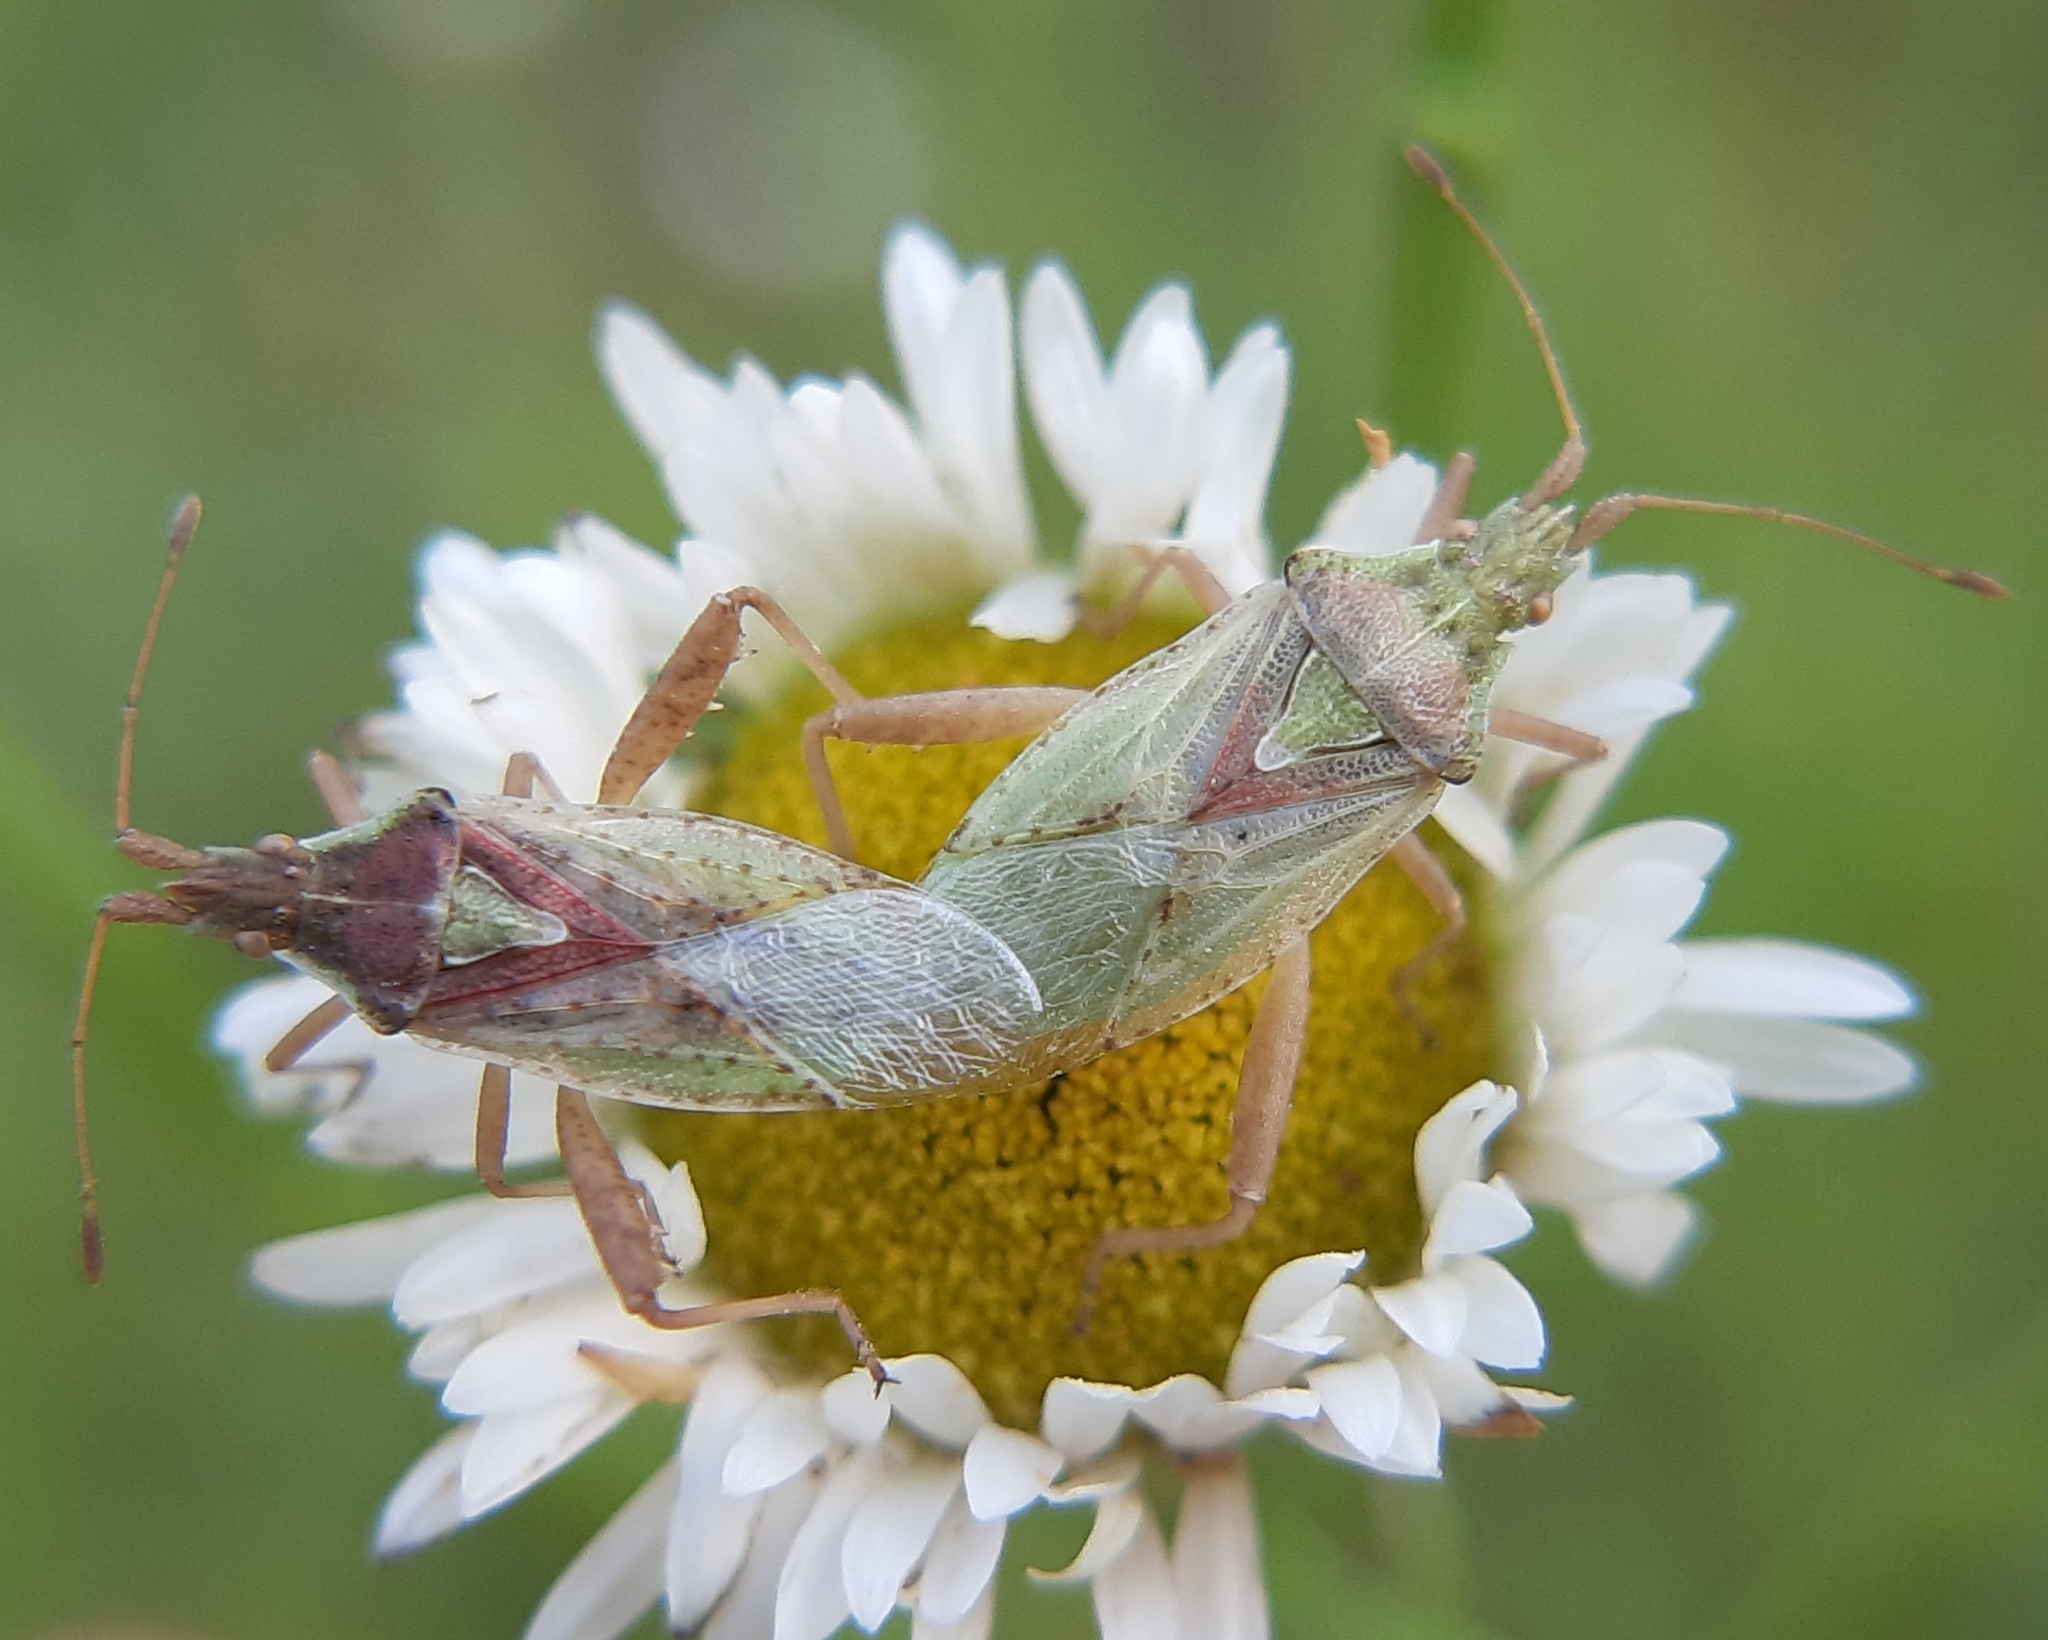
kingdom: Animalia
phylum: Arthropoda
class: Insecta
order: Hemiptera
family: Rhopalidae
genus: Harmostes
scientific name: Harmostes reflexulus
